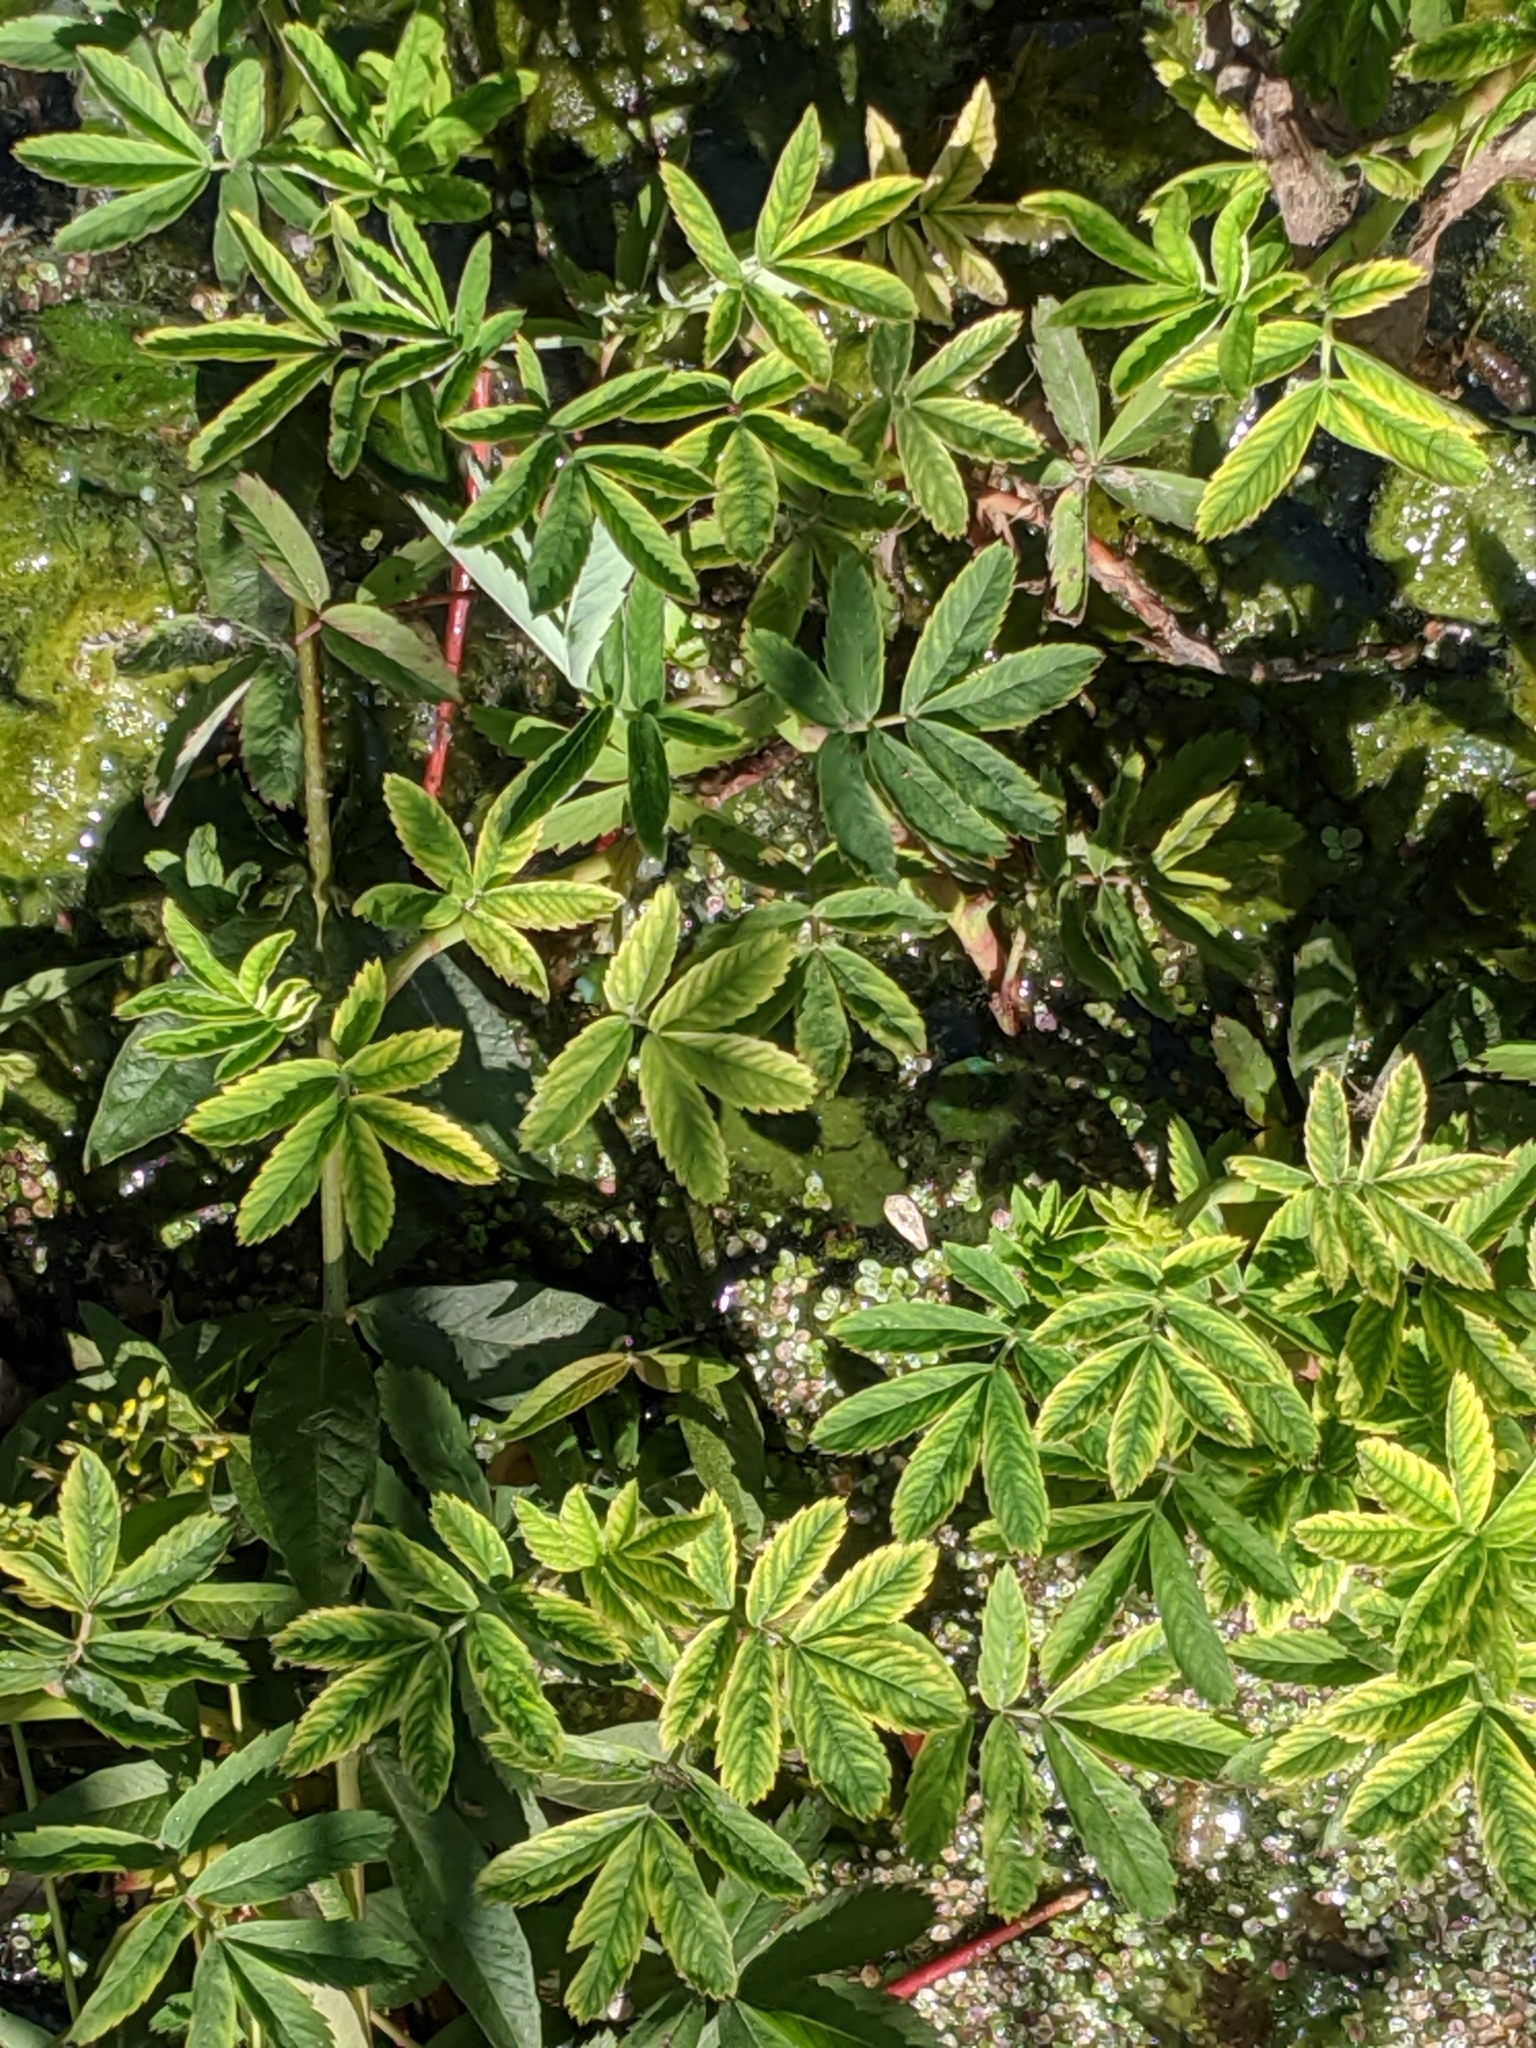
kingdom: Plantae
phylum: Tracheophyta
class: Magnoliopsida
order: Rosales
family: Rosaceae
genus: Comarum
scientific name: Comarum palustre
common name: Marsh cinquefoil
